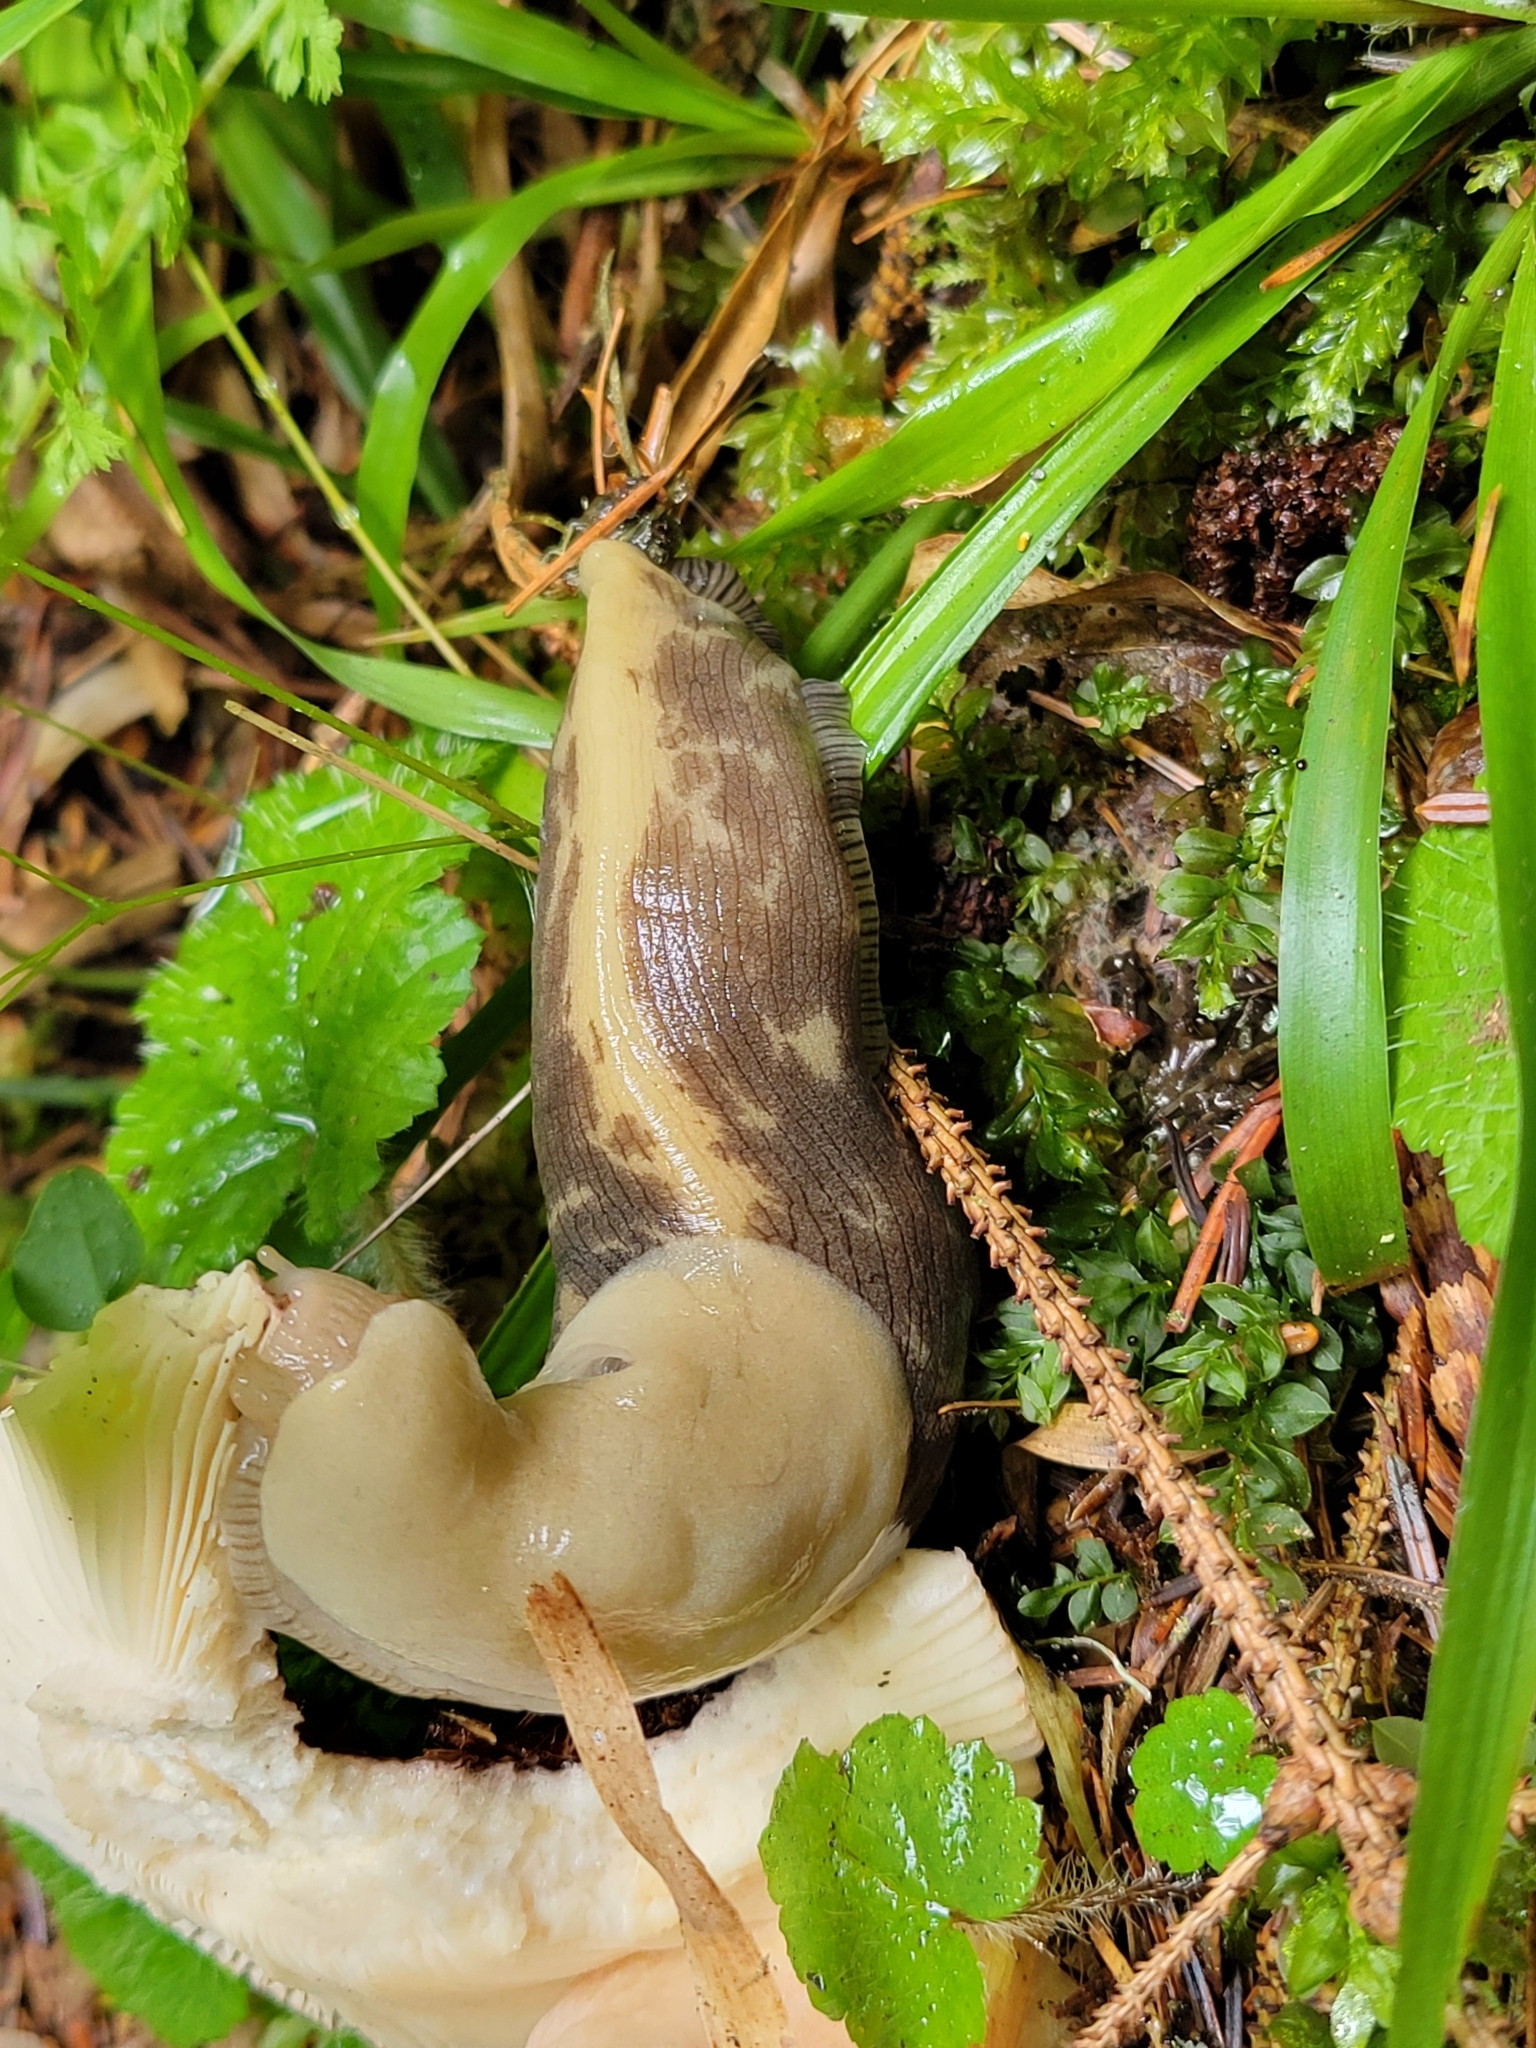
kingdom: Animalia
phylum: Mollusca
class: Gastropoda
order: Stylommatophora
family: Ariolimacidae
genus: Ariolimax
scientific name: Ariolimax columbianus
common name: Pacific banana slug
